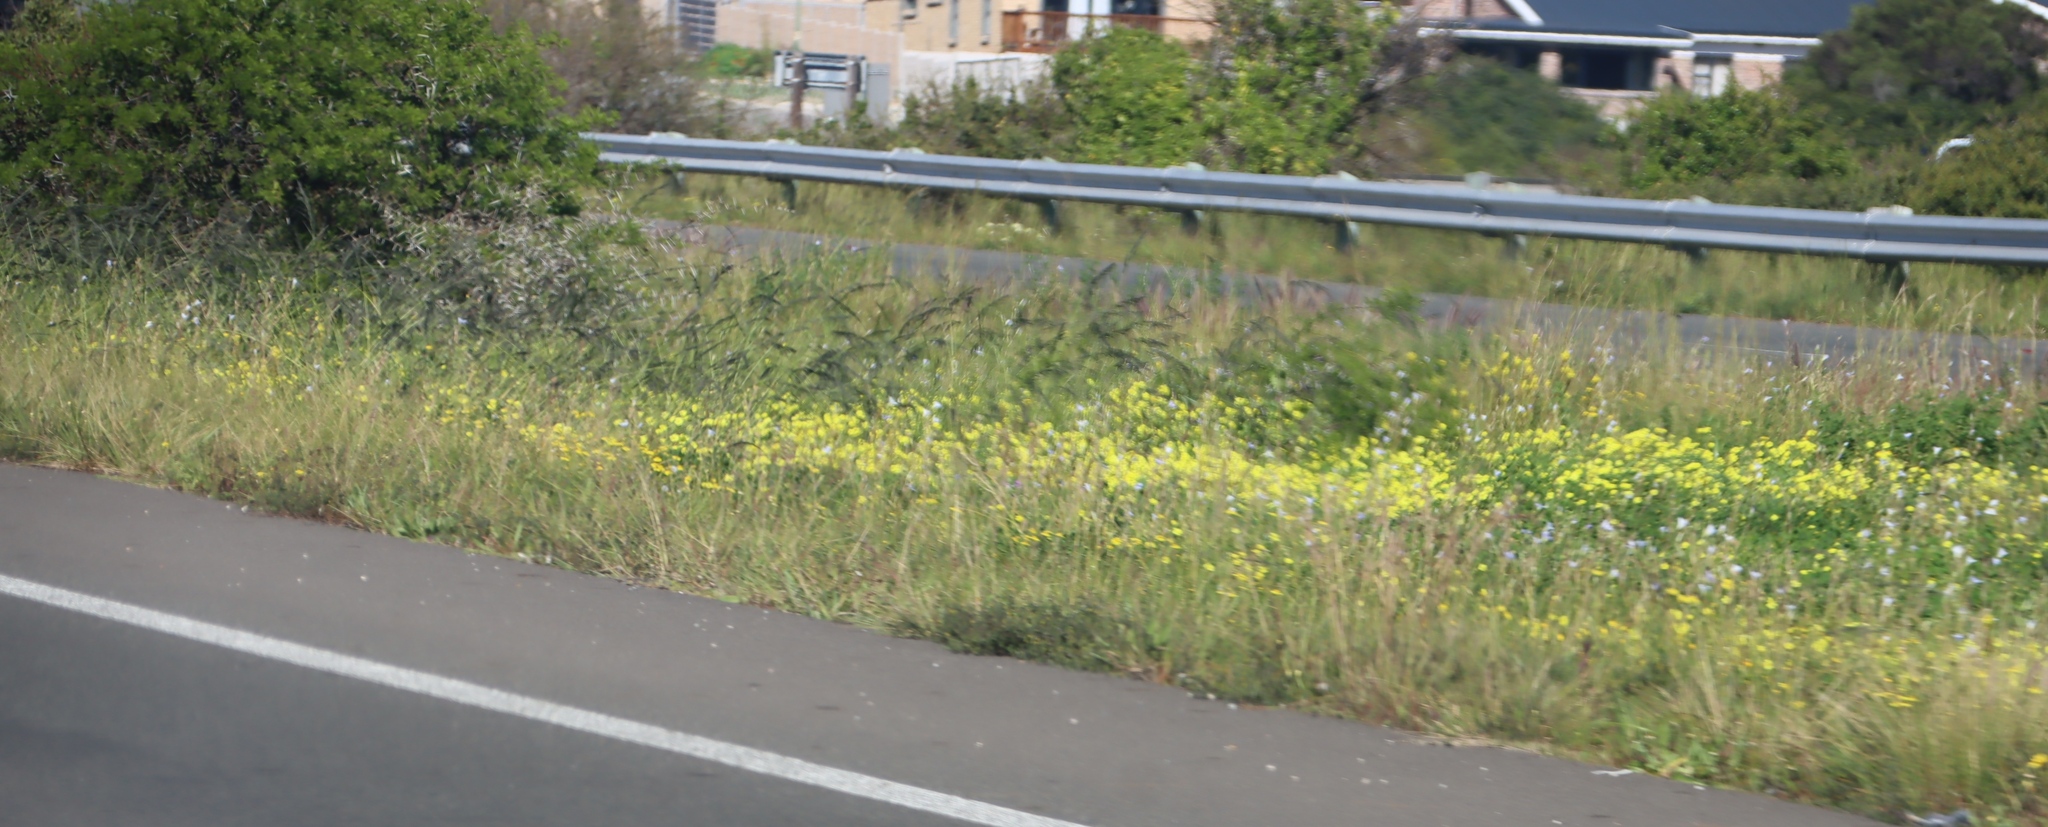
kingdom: Plantae
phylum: Tracheophyta
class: Magnoliopsida
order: Oxalidales
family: Oxalidaceae
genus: Oxalis
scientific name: Oxalis pes-caprae
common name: Bermuda-buttercup
